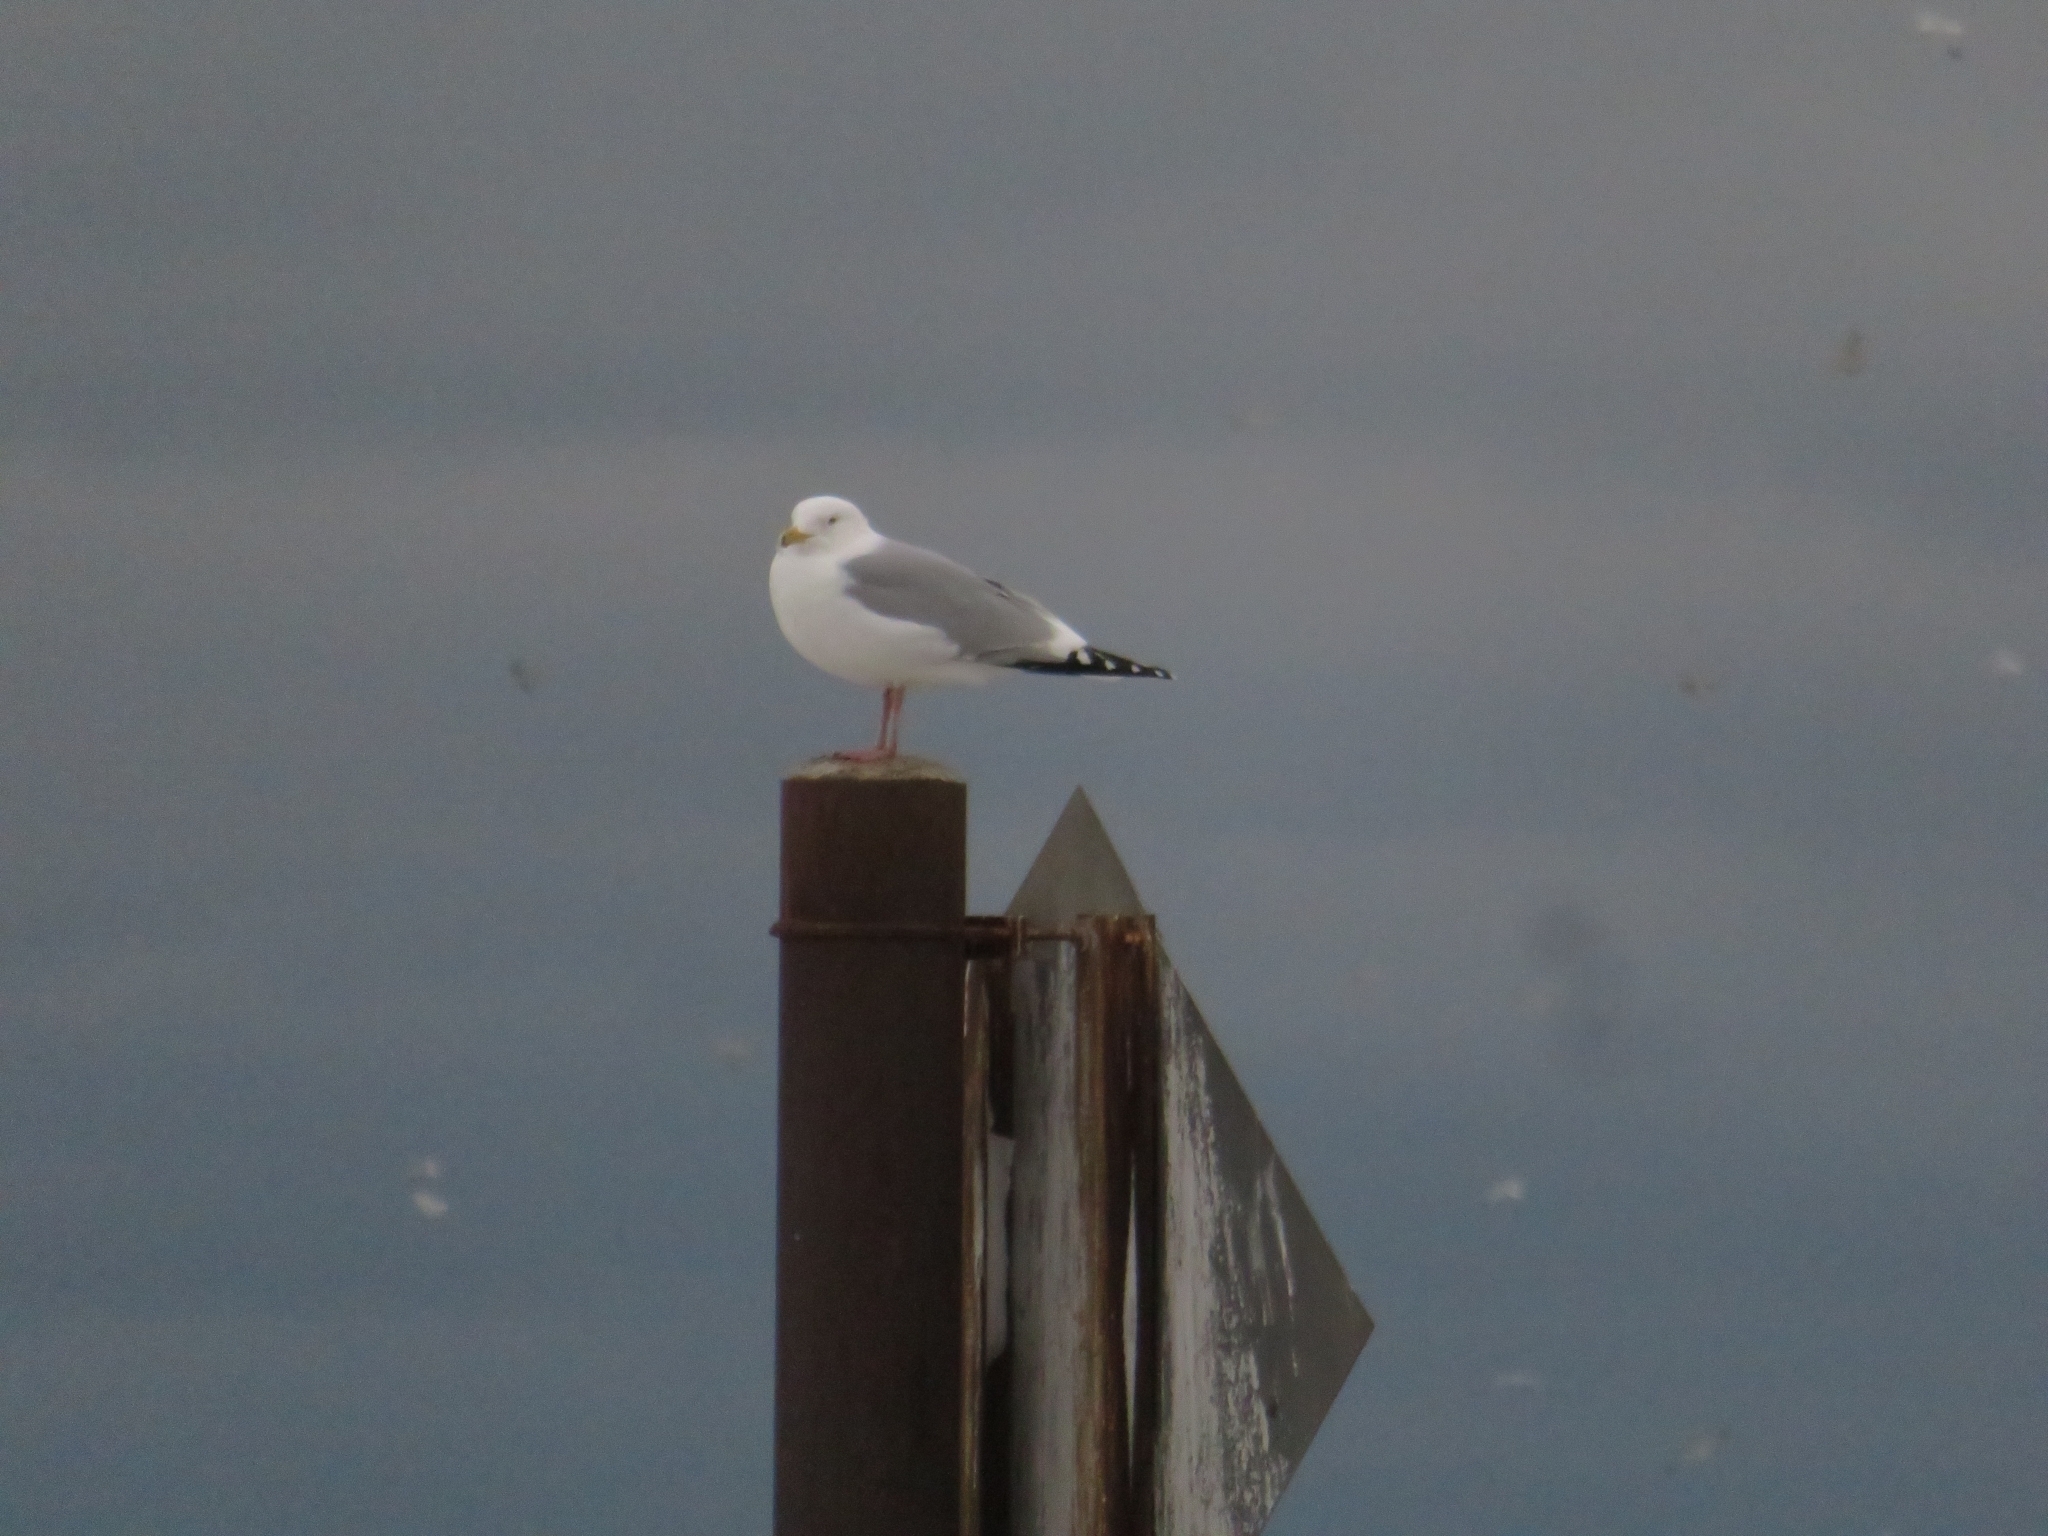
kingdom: Animalia
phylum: Chordata
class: Aves
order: Charadriiformes
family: Laridae
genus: Larus
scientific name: Larus argentatus
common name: Herring gull
